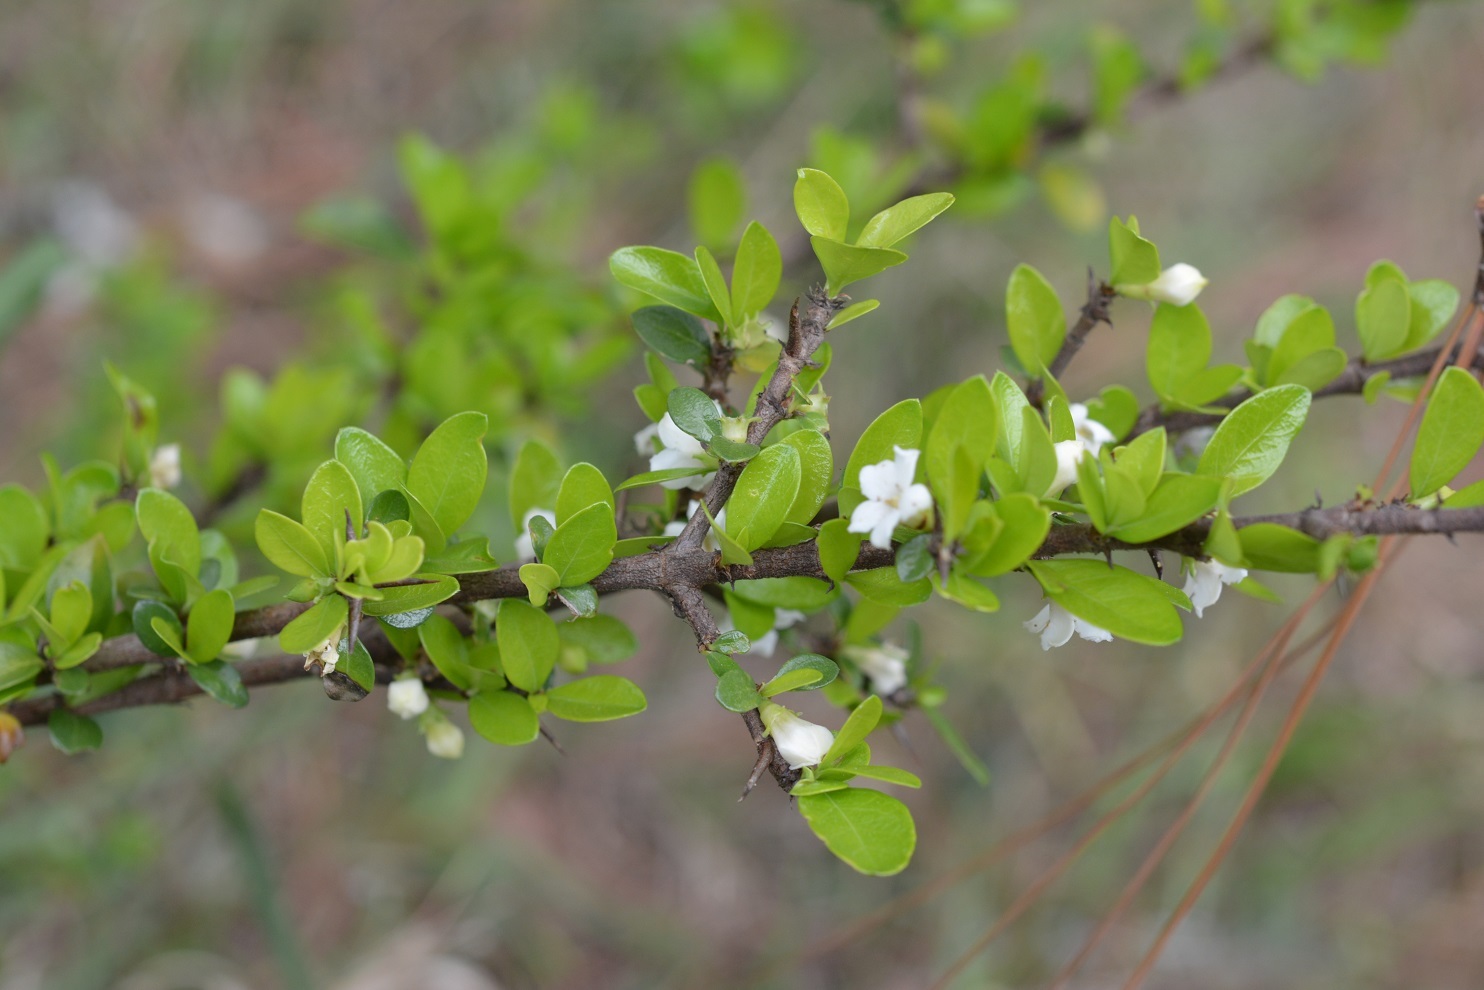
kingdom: Plantae
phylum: Tracheophyta
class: Magnoliopsida
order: Gentianales
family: Rubiaceae
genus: Randia
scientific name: Randia chiapensis
